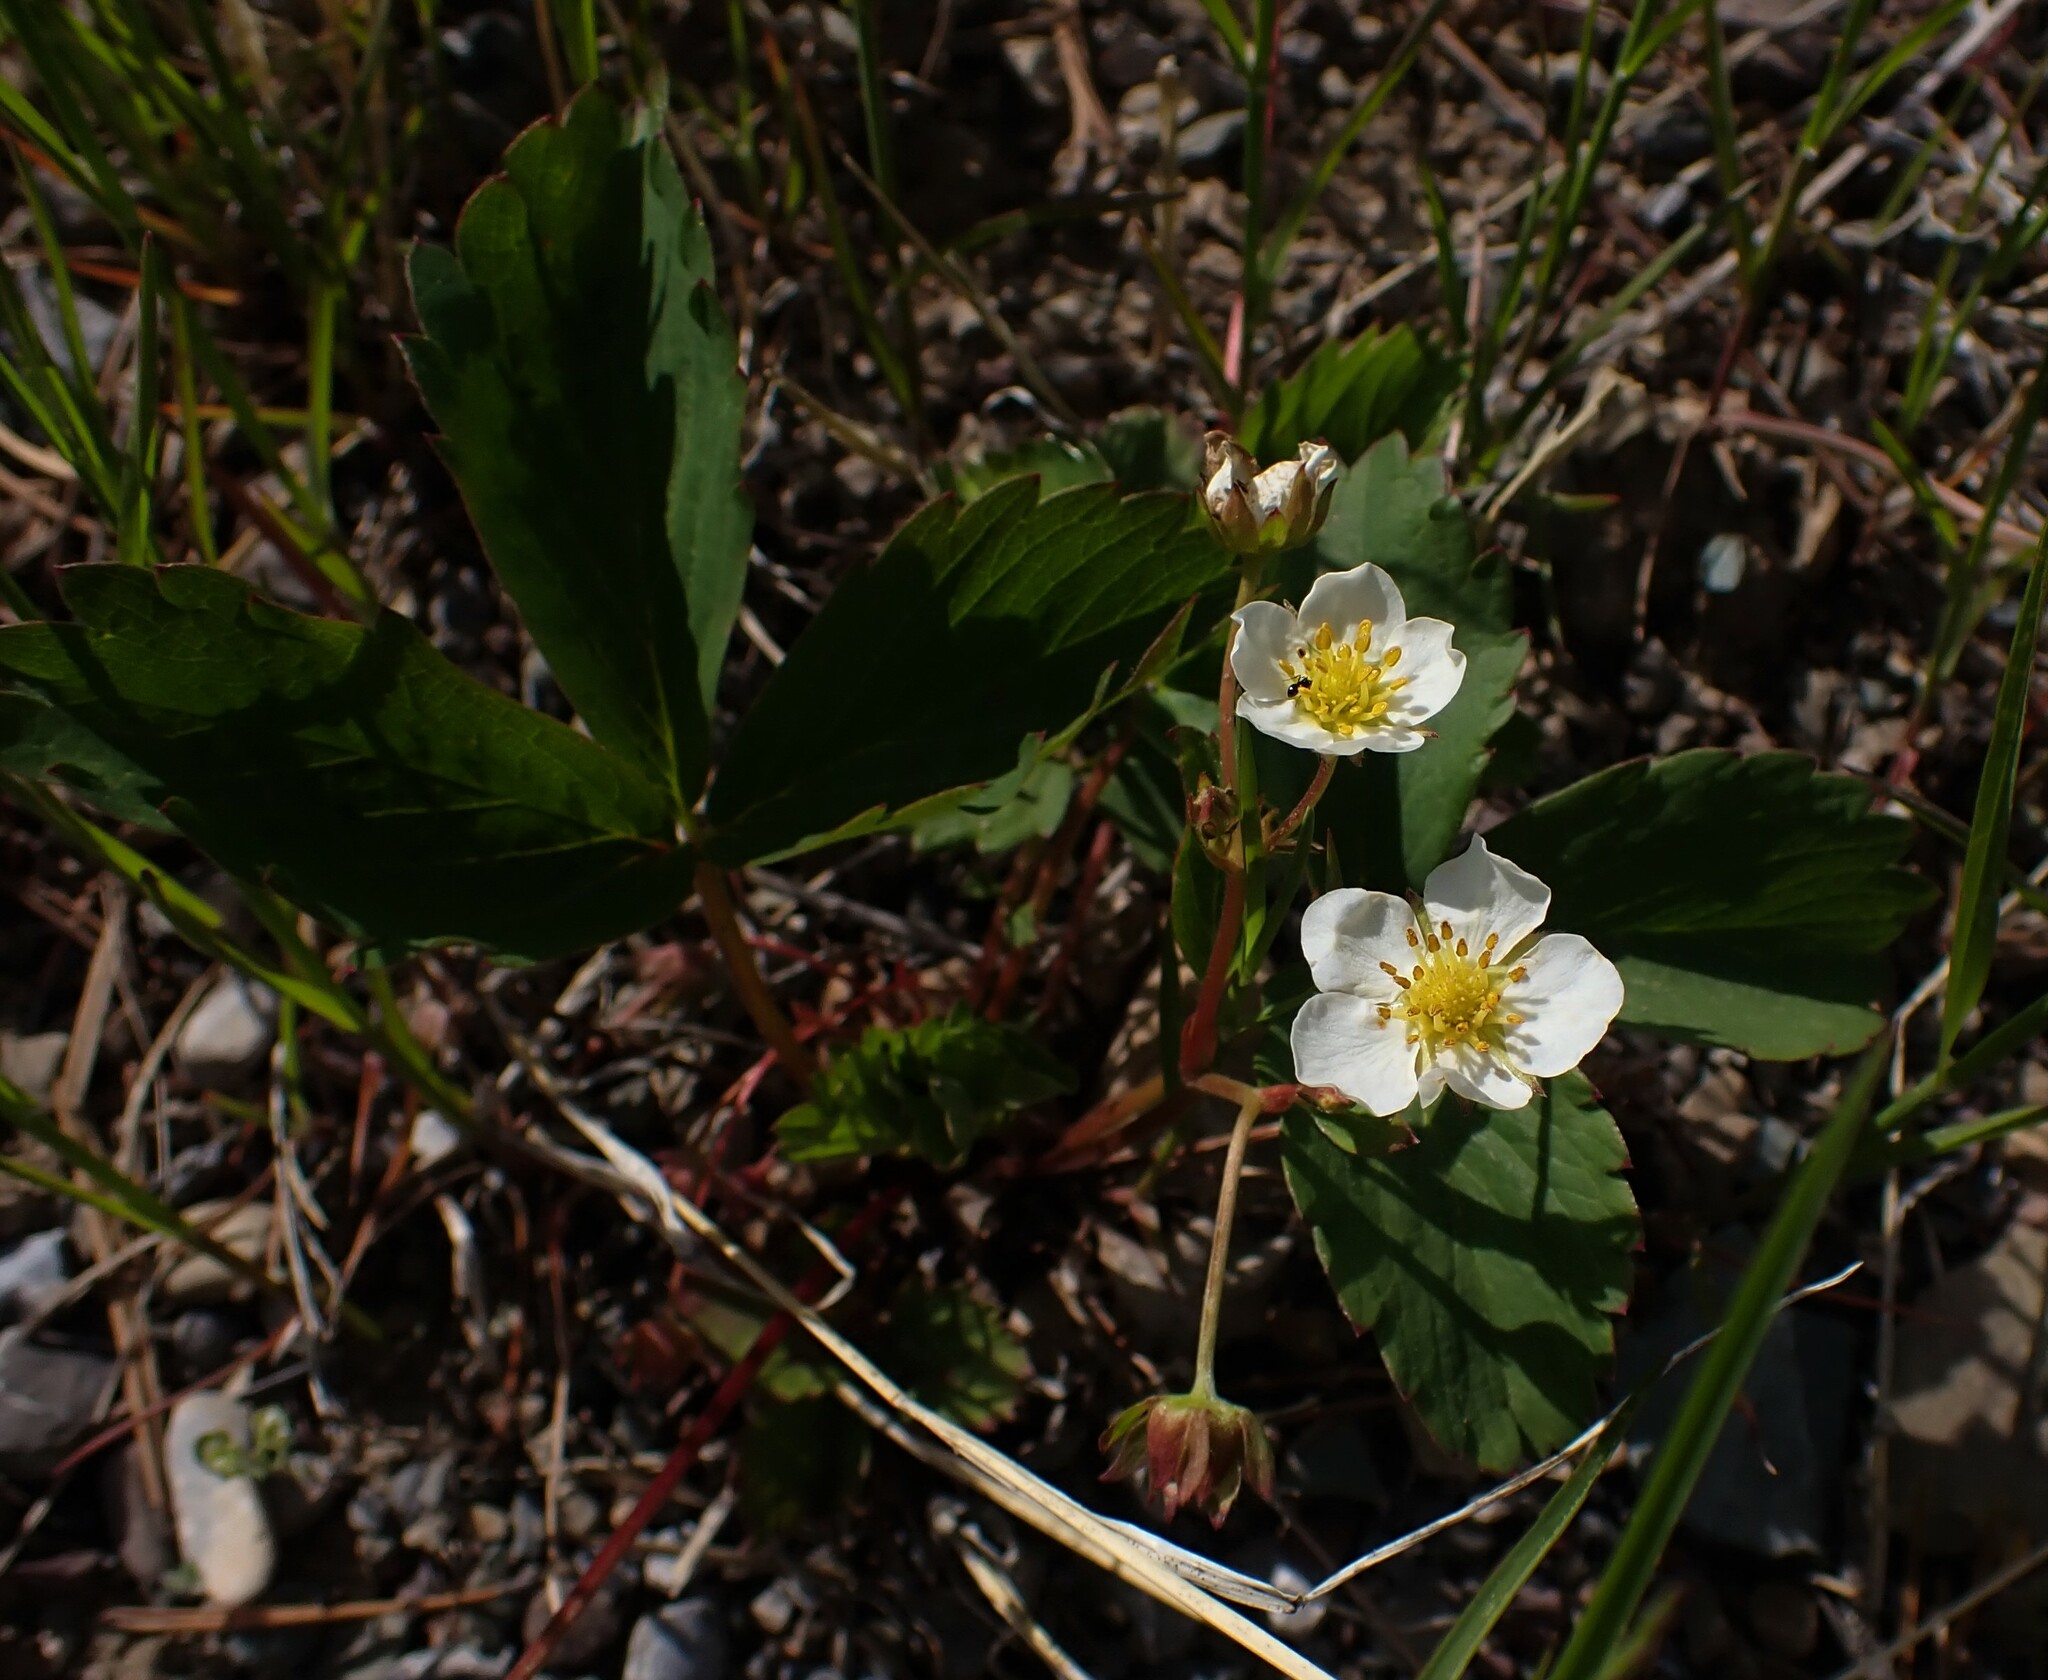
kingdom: Plantae
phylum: Tracheophyta
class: Magnoliopsida
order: Rosales
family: Rosaceae
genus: Fragaria
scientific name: Fragaria virginiana
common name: Thickleaved wild strawberry
